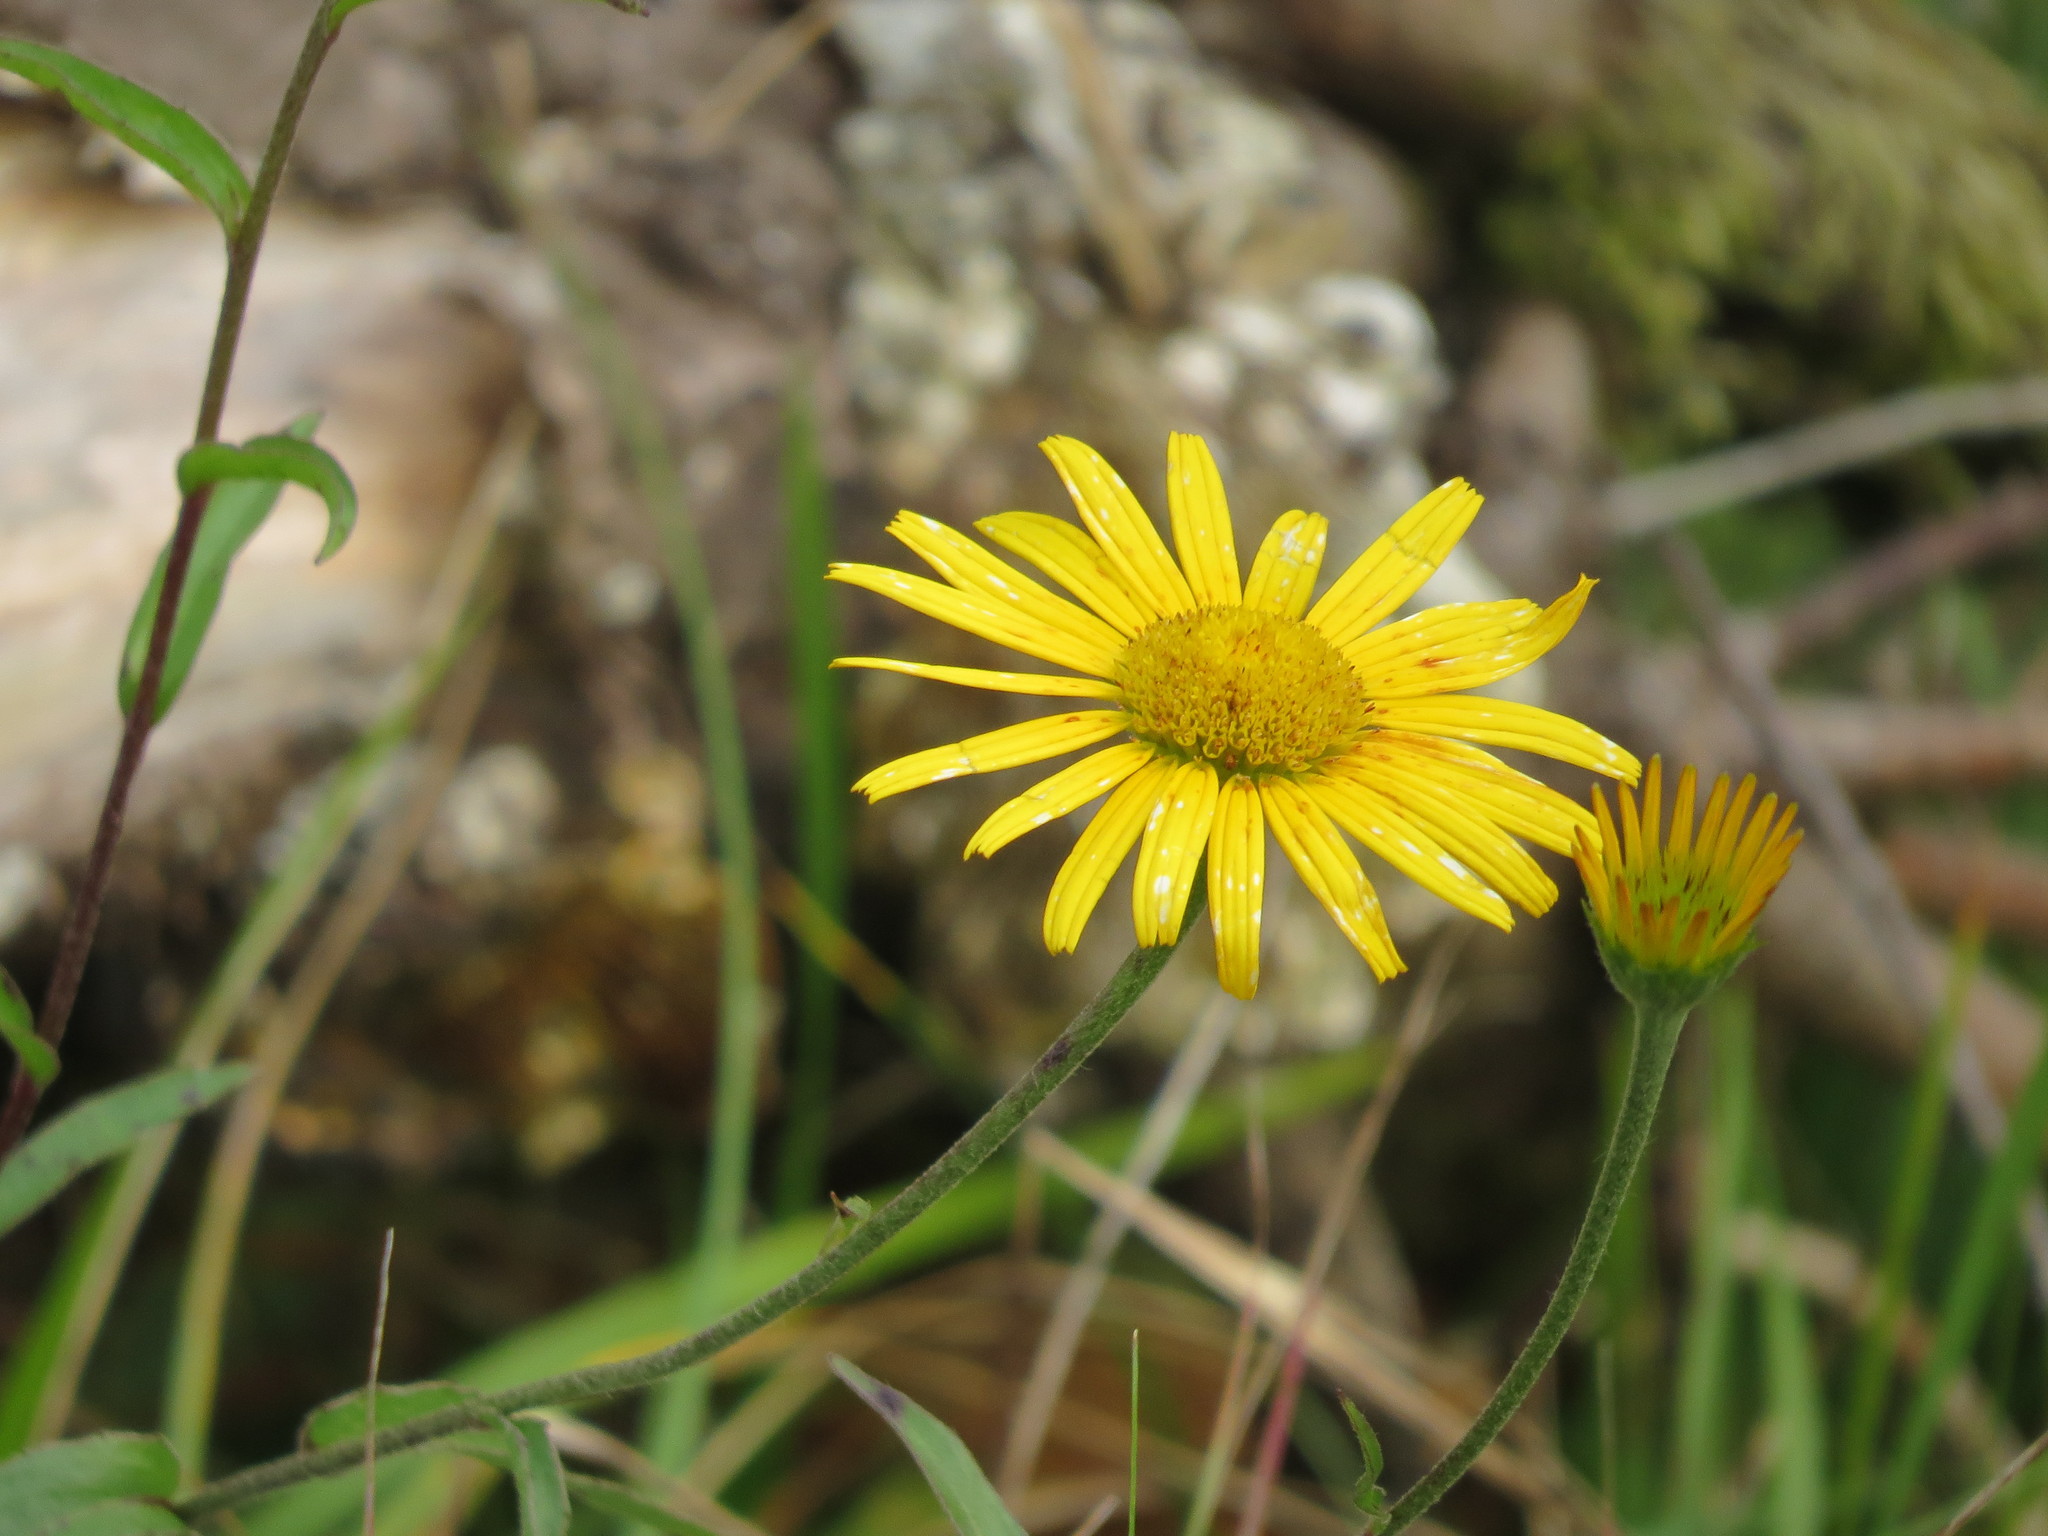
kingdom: Plantae
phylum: Tracheophyta
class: Magnoliopsida
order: Asterales
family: Asteraceae
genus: Buphthalmum
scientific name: Buphthalmum salicifolium
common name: Willow-leaved yellow-oxeye
